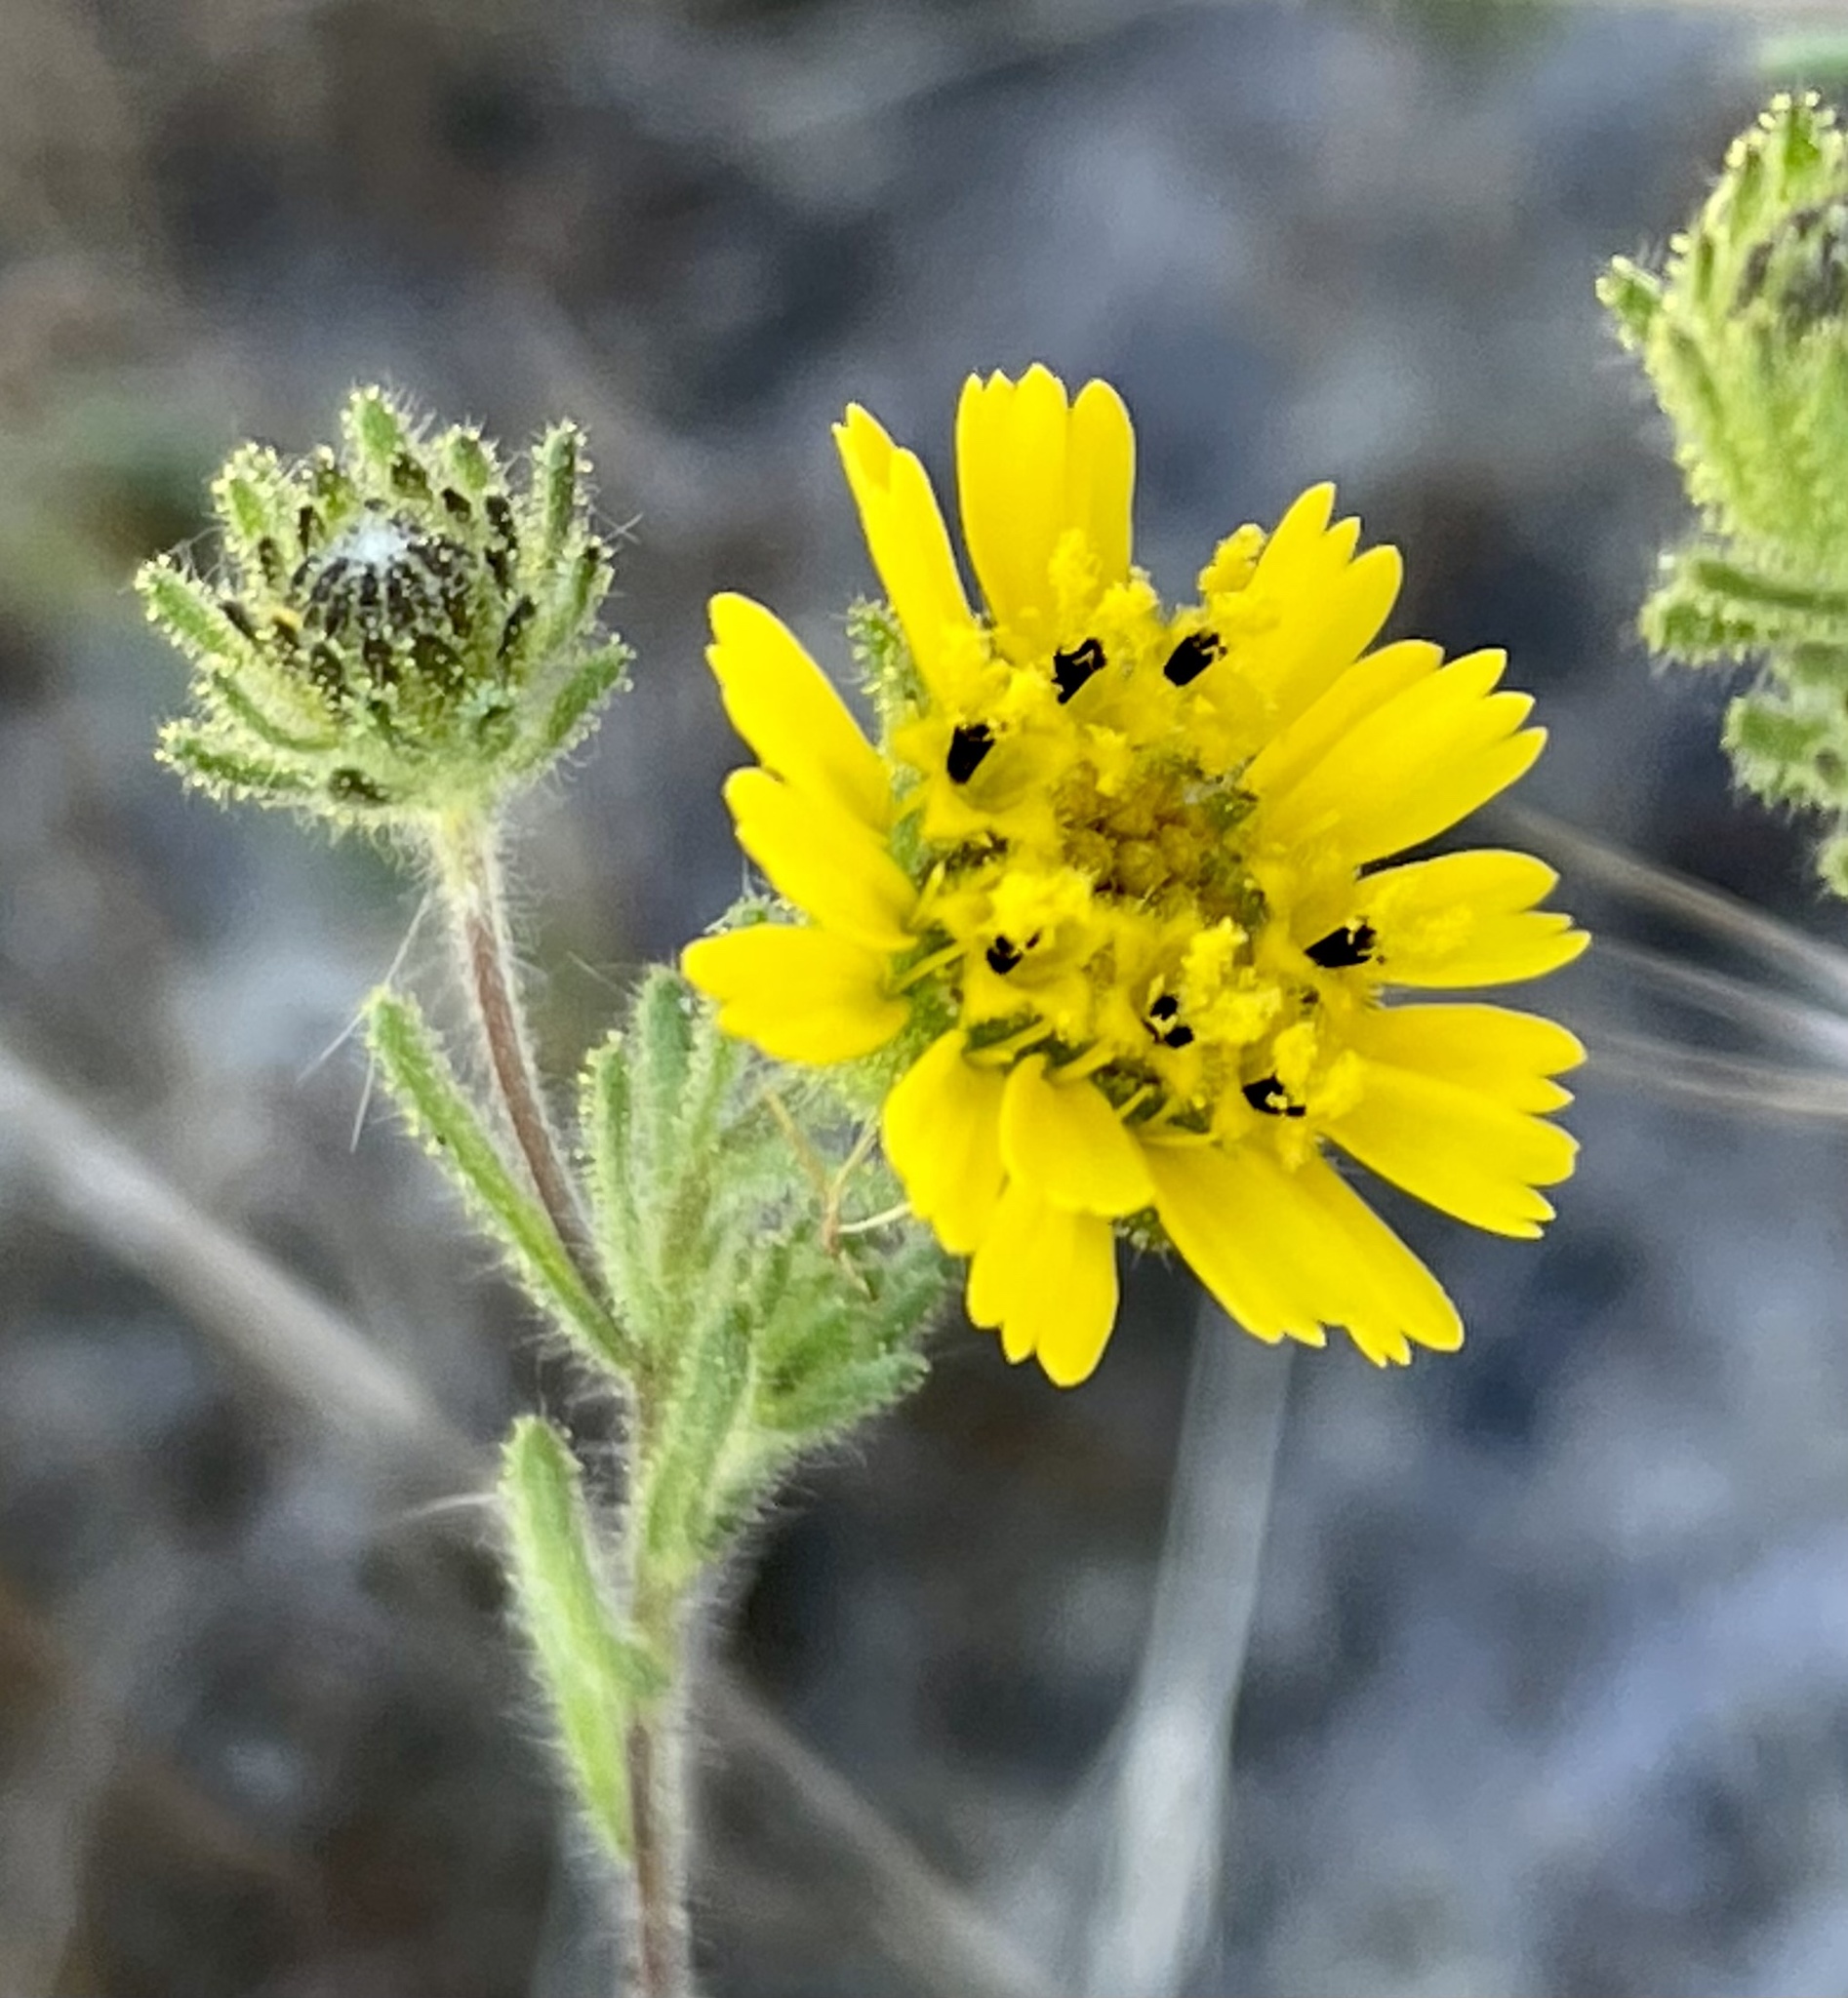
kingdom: Plantae
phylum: Tracheophyta
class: Magnoliopsida
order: Asterales
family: Asteraceae
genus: Deinandra
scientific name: Deinandra corymbosa
